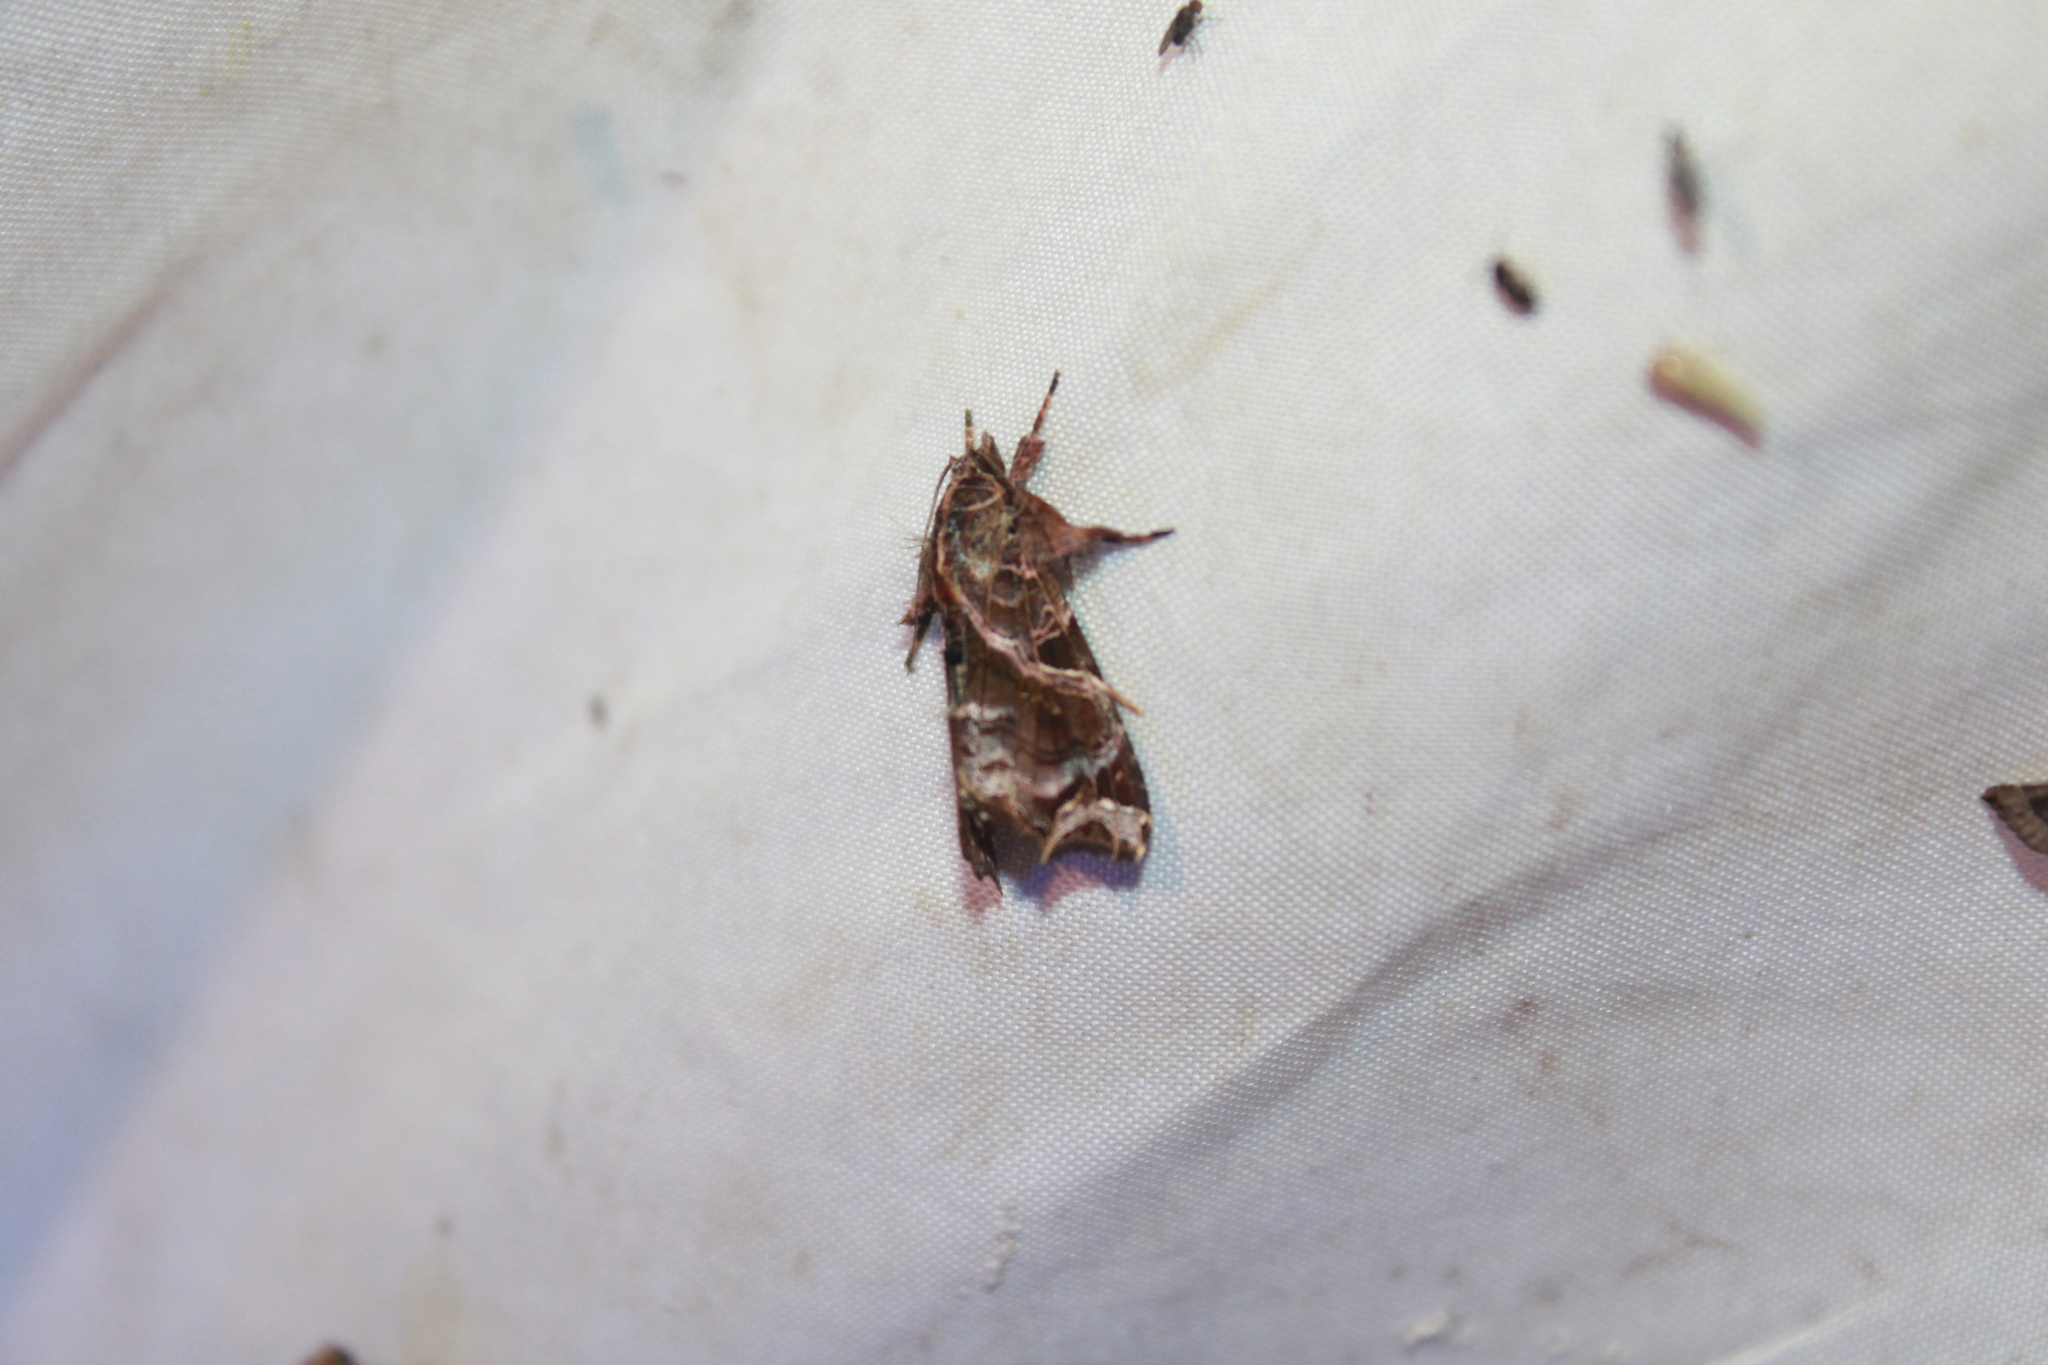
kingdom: Animalia
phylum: Arthropoda
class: Insecta
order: Lepidoptera
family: Noctuidae
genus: Callopistria
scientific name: Callopistria floridensis
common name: Florida fern moth
